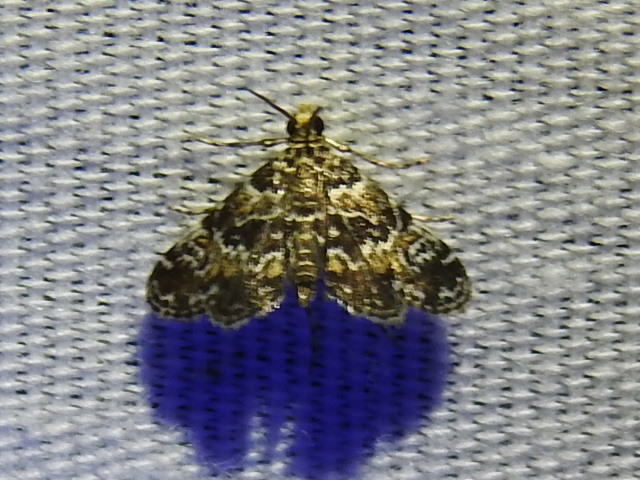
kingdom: Animalia
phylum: Arthropoda
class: Insecta
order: Lepidoptera
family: Crambidae
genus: Elophila
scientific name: Elophila obliteralis
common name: Waterlily leafcutter moth
